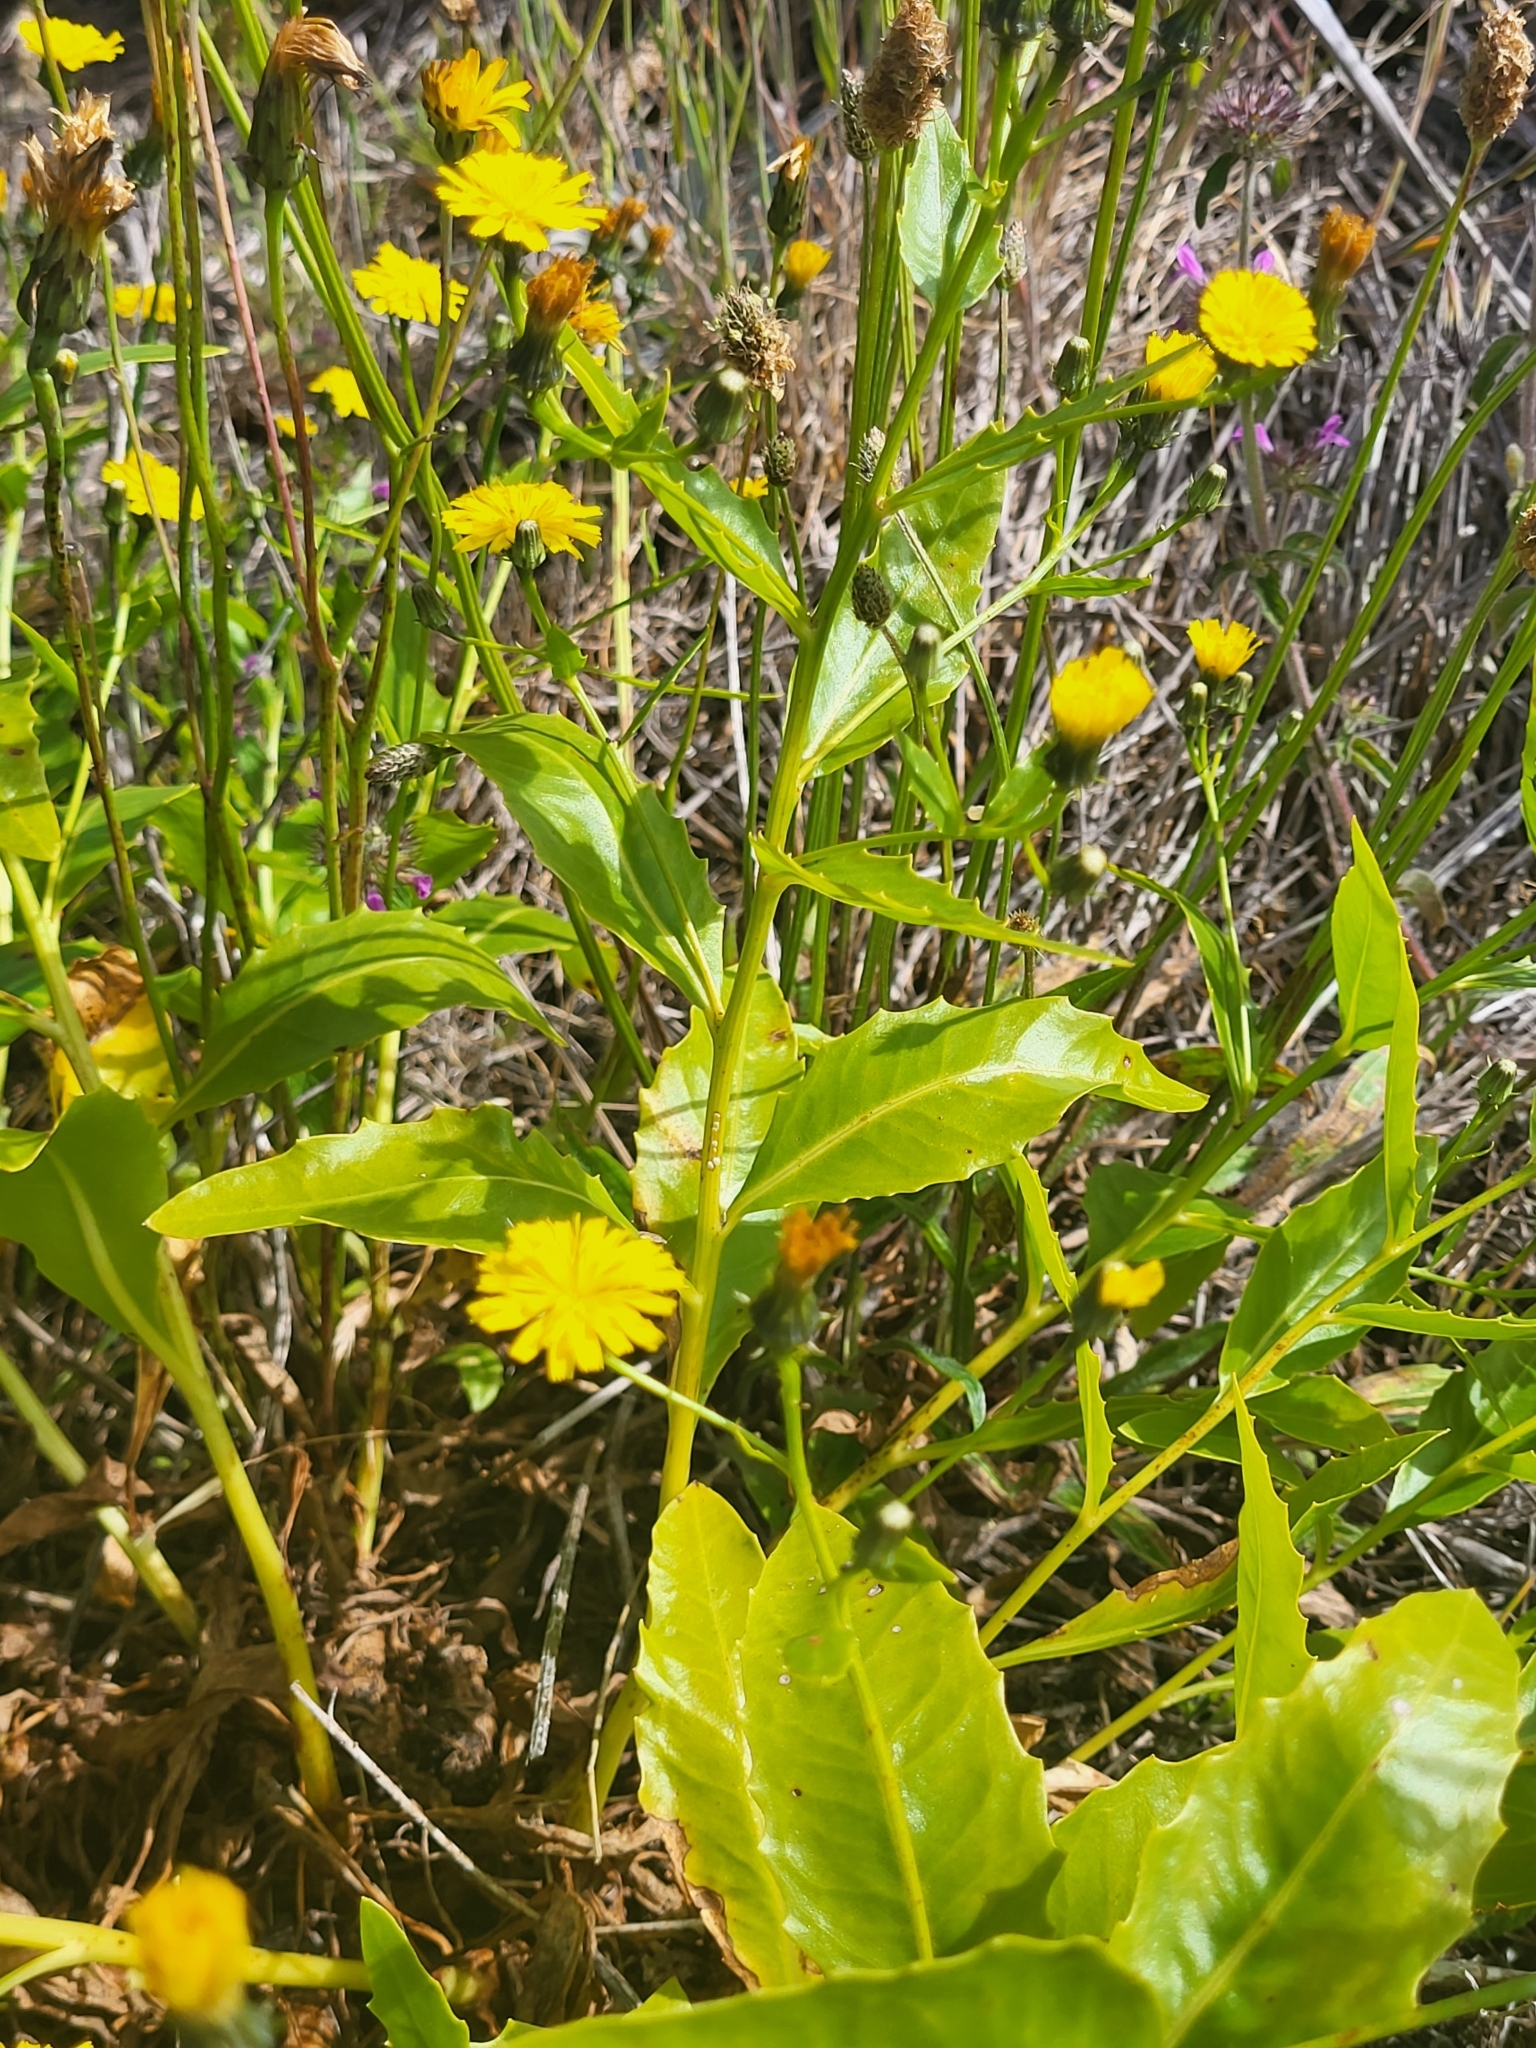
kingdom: Plantae
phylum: Tracheophyta
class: Magnoliopsida
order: Asterales
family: Asteraceae
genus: Tolpis
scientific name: Tolpis macrorhiza
